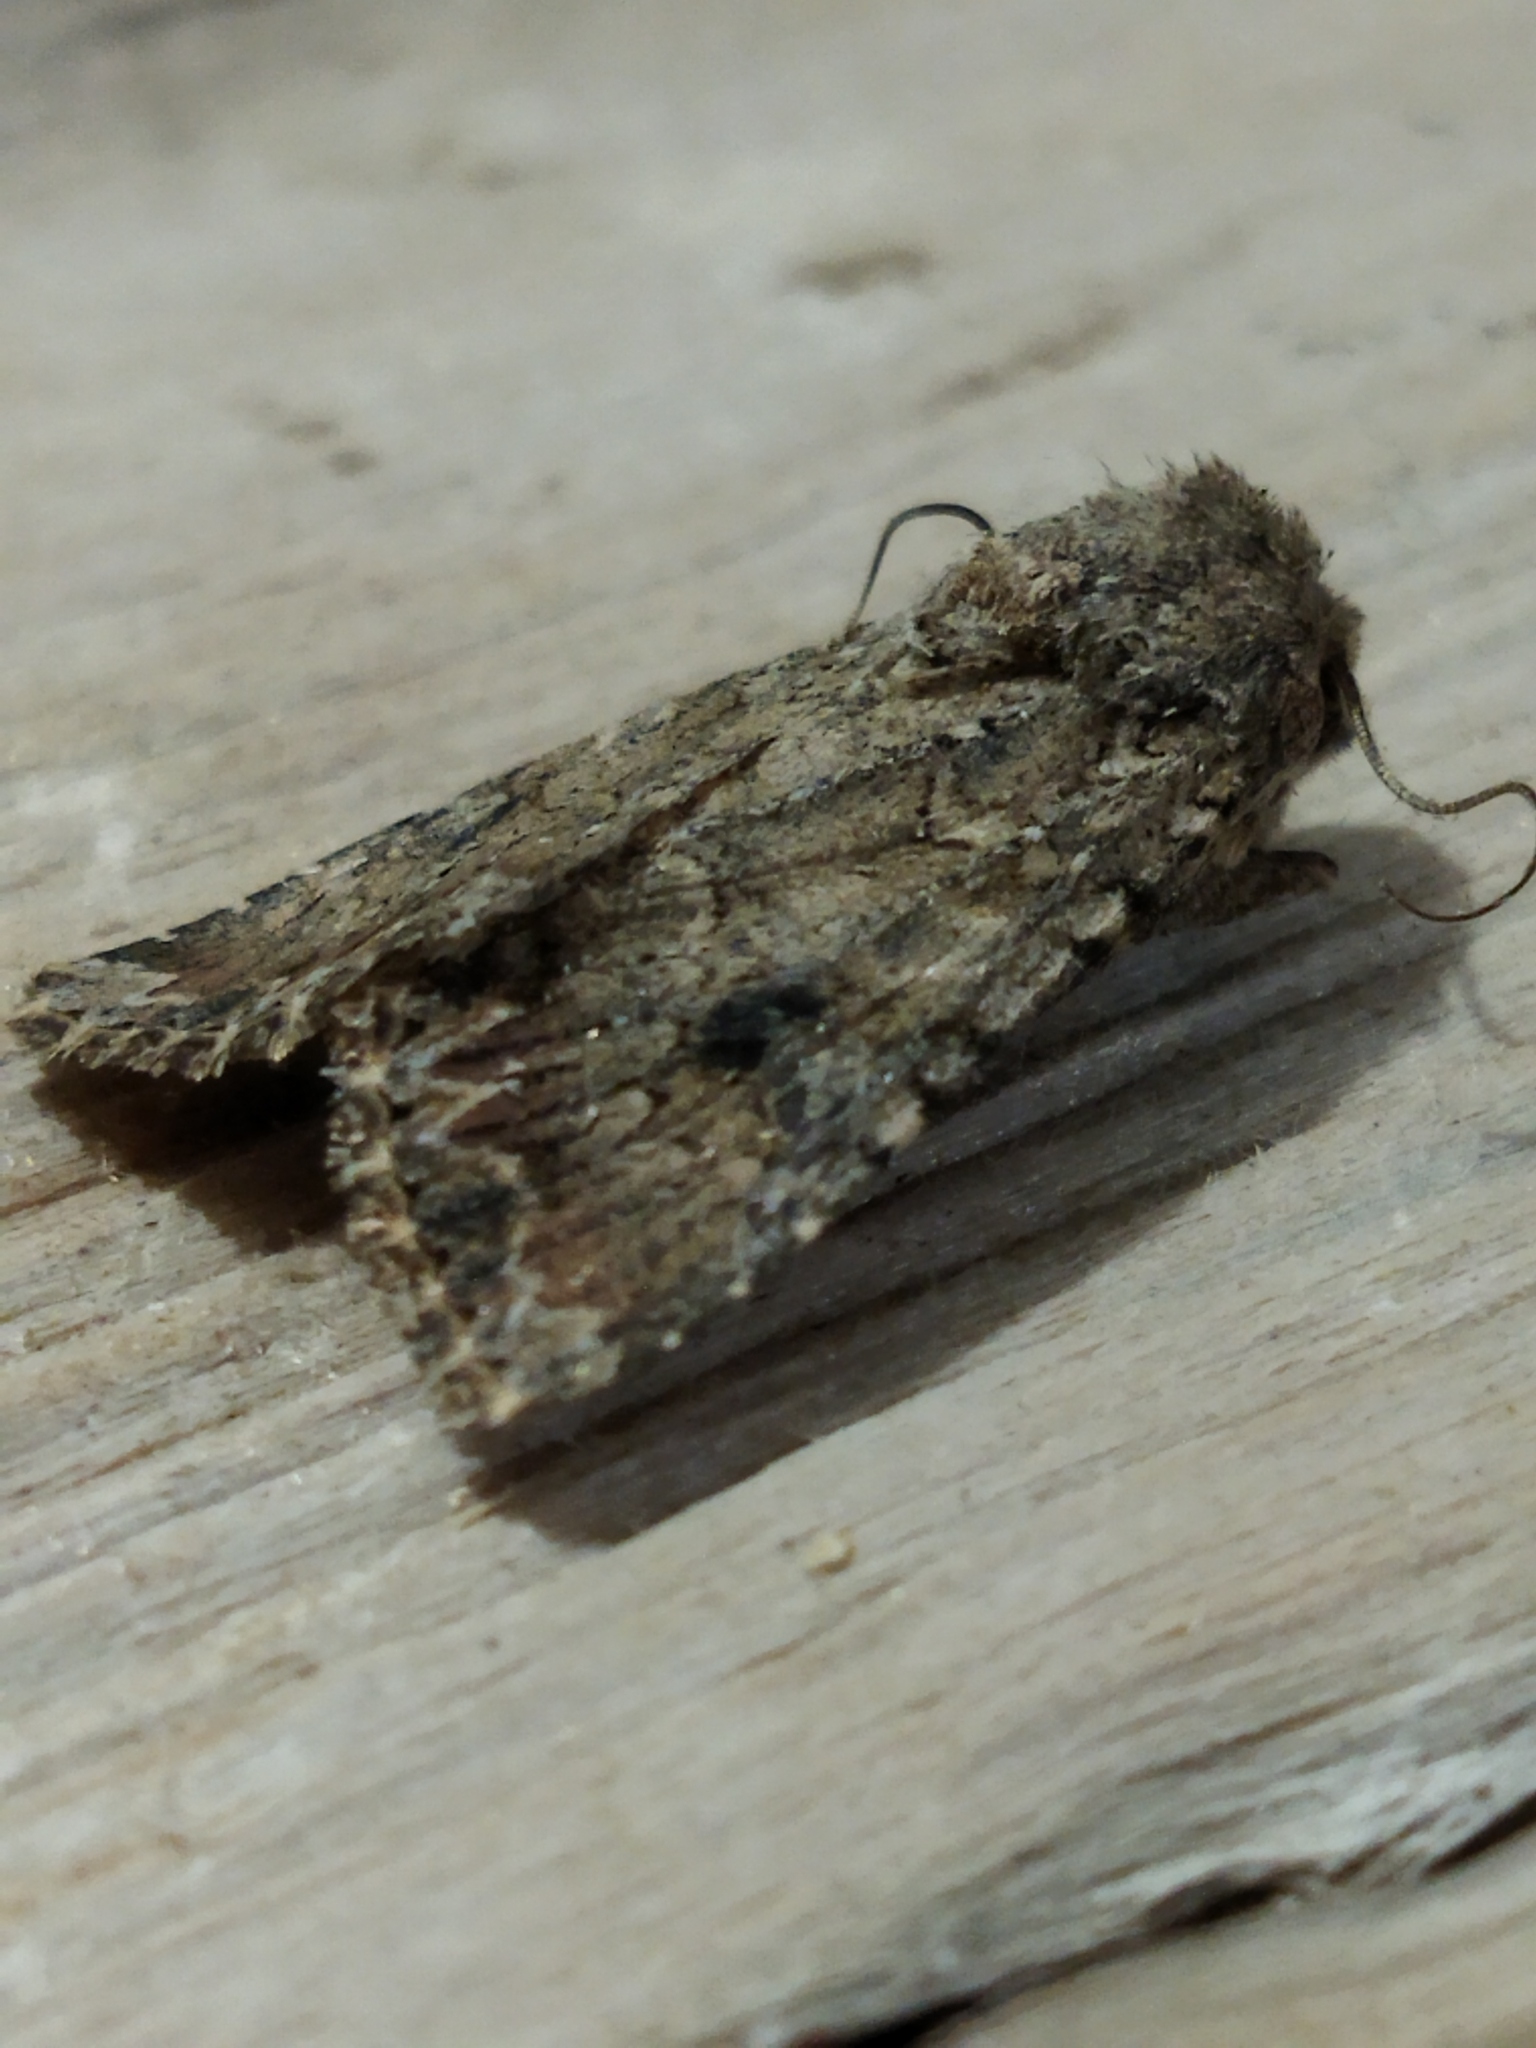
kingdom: Animalia
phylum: Arthropoda
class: Insecta
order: Lepidoptera
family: Noctuidae
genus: Anarta
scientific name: Anarta trifolii
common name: Clover cutworm moth
